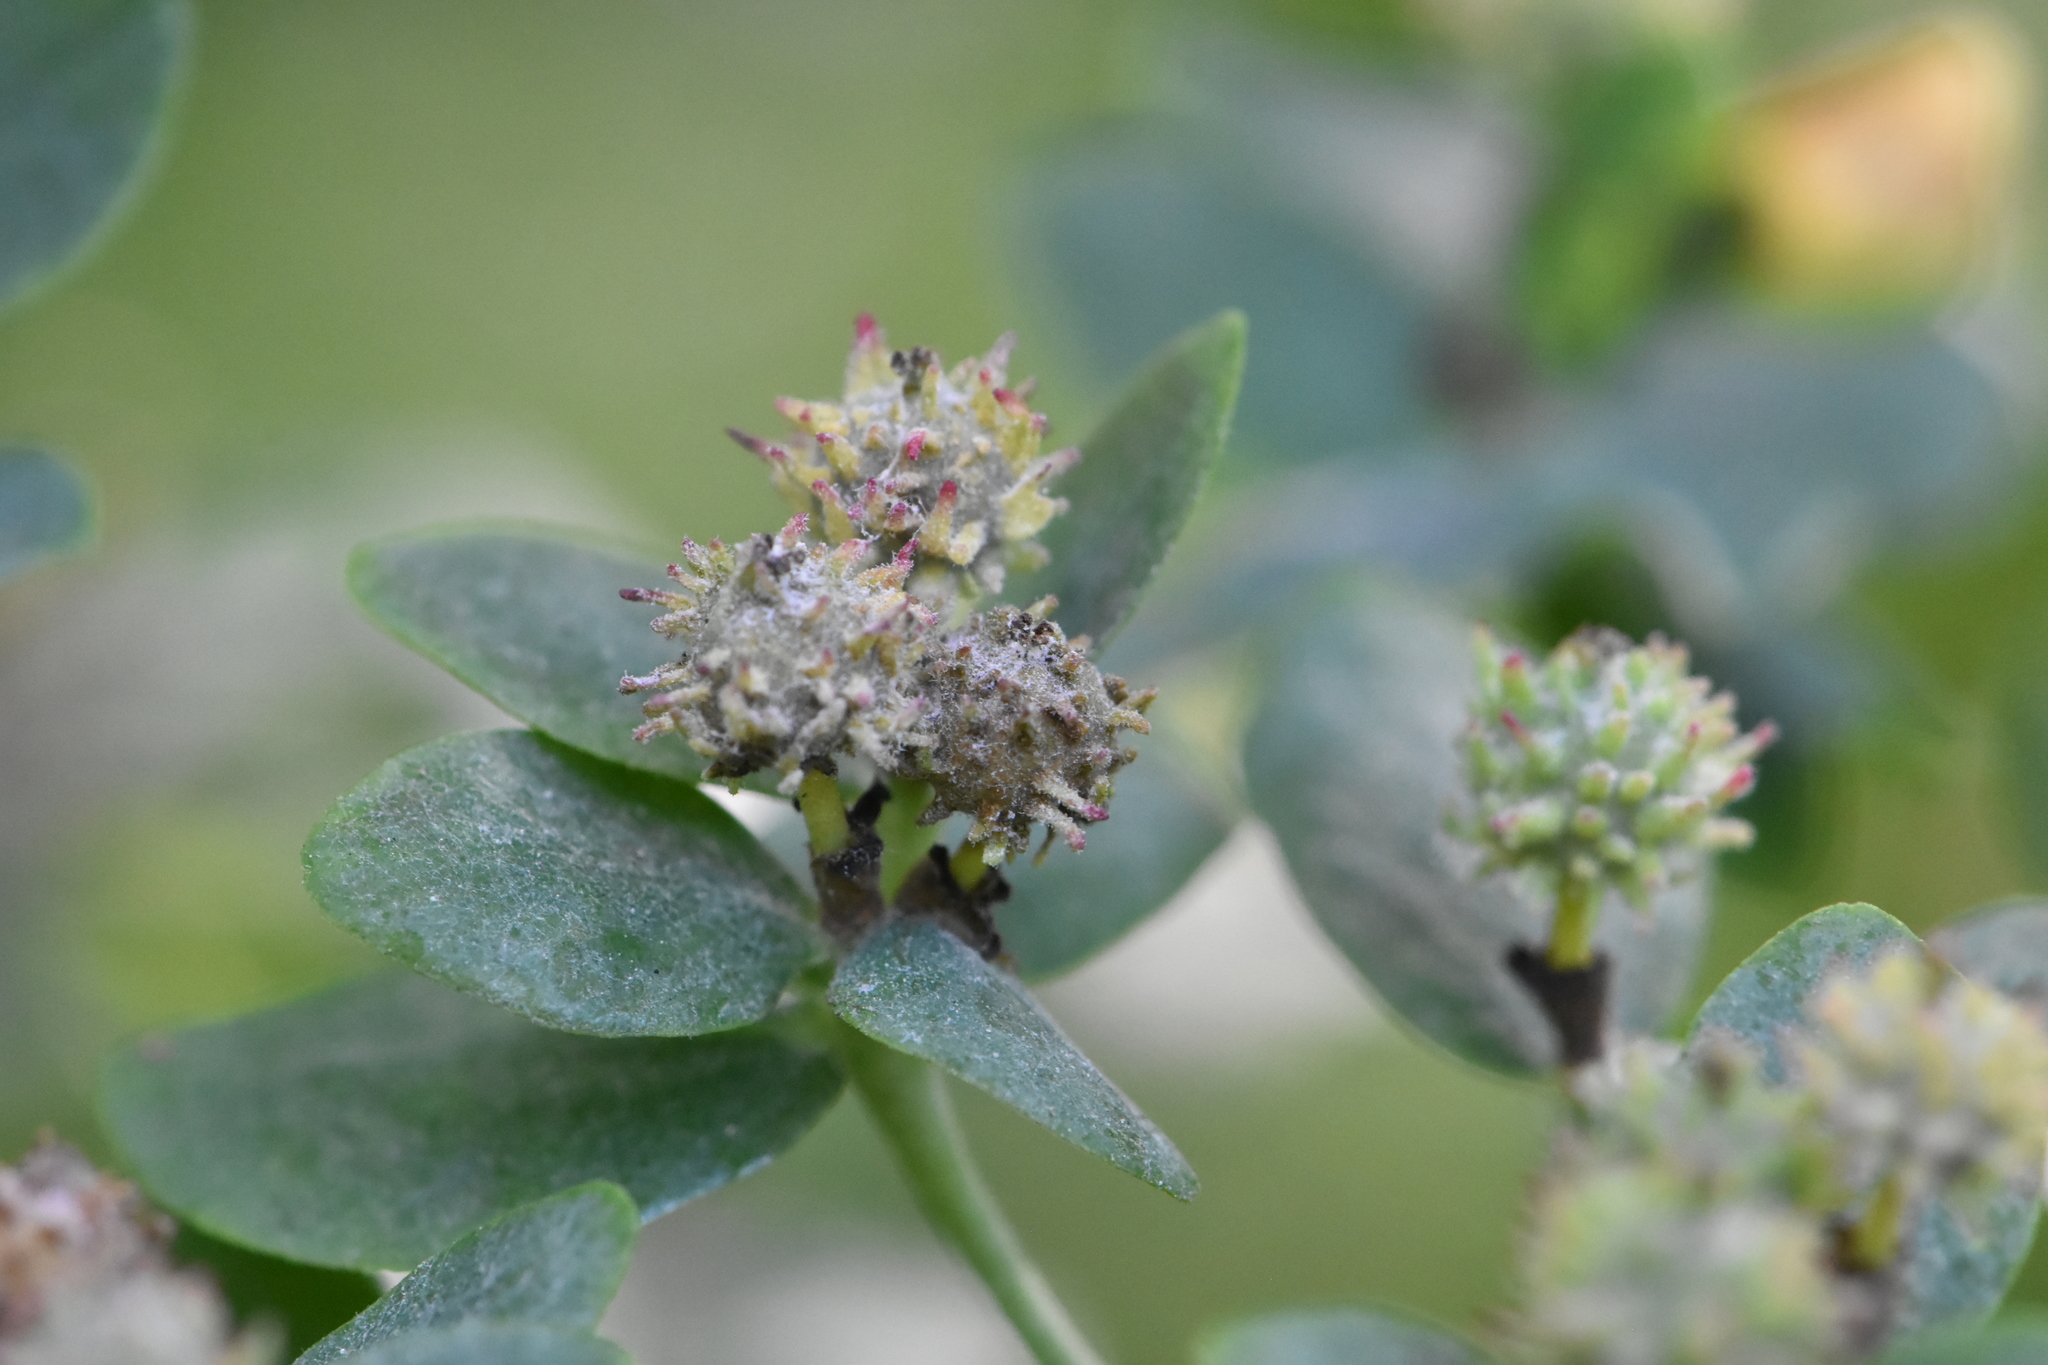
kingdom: Plantae
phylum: Tracheophyta
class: Magnoliopsida
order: Malpighiales
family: Euphorbiaceae
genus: Euphorbia
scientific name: Euphorbia pilosa
